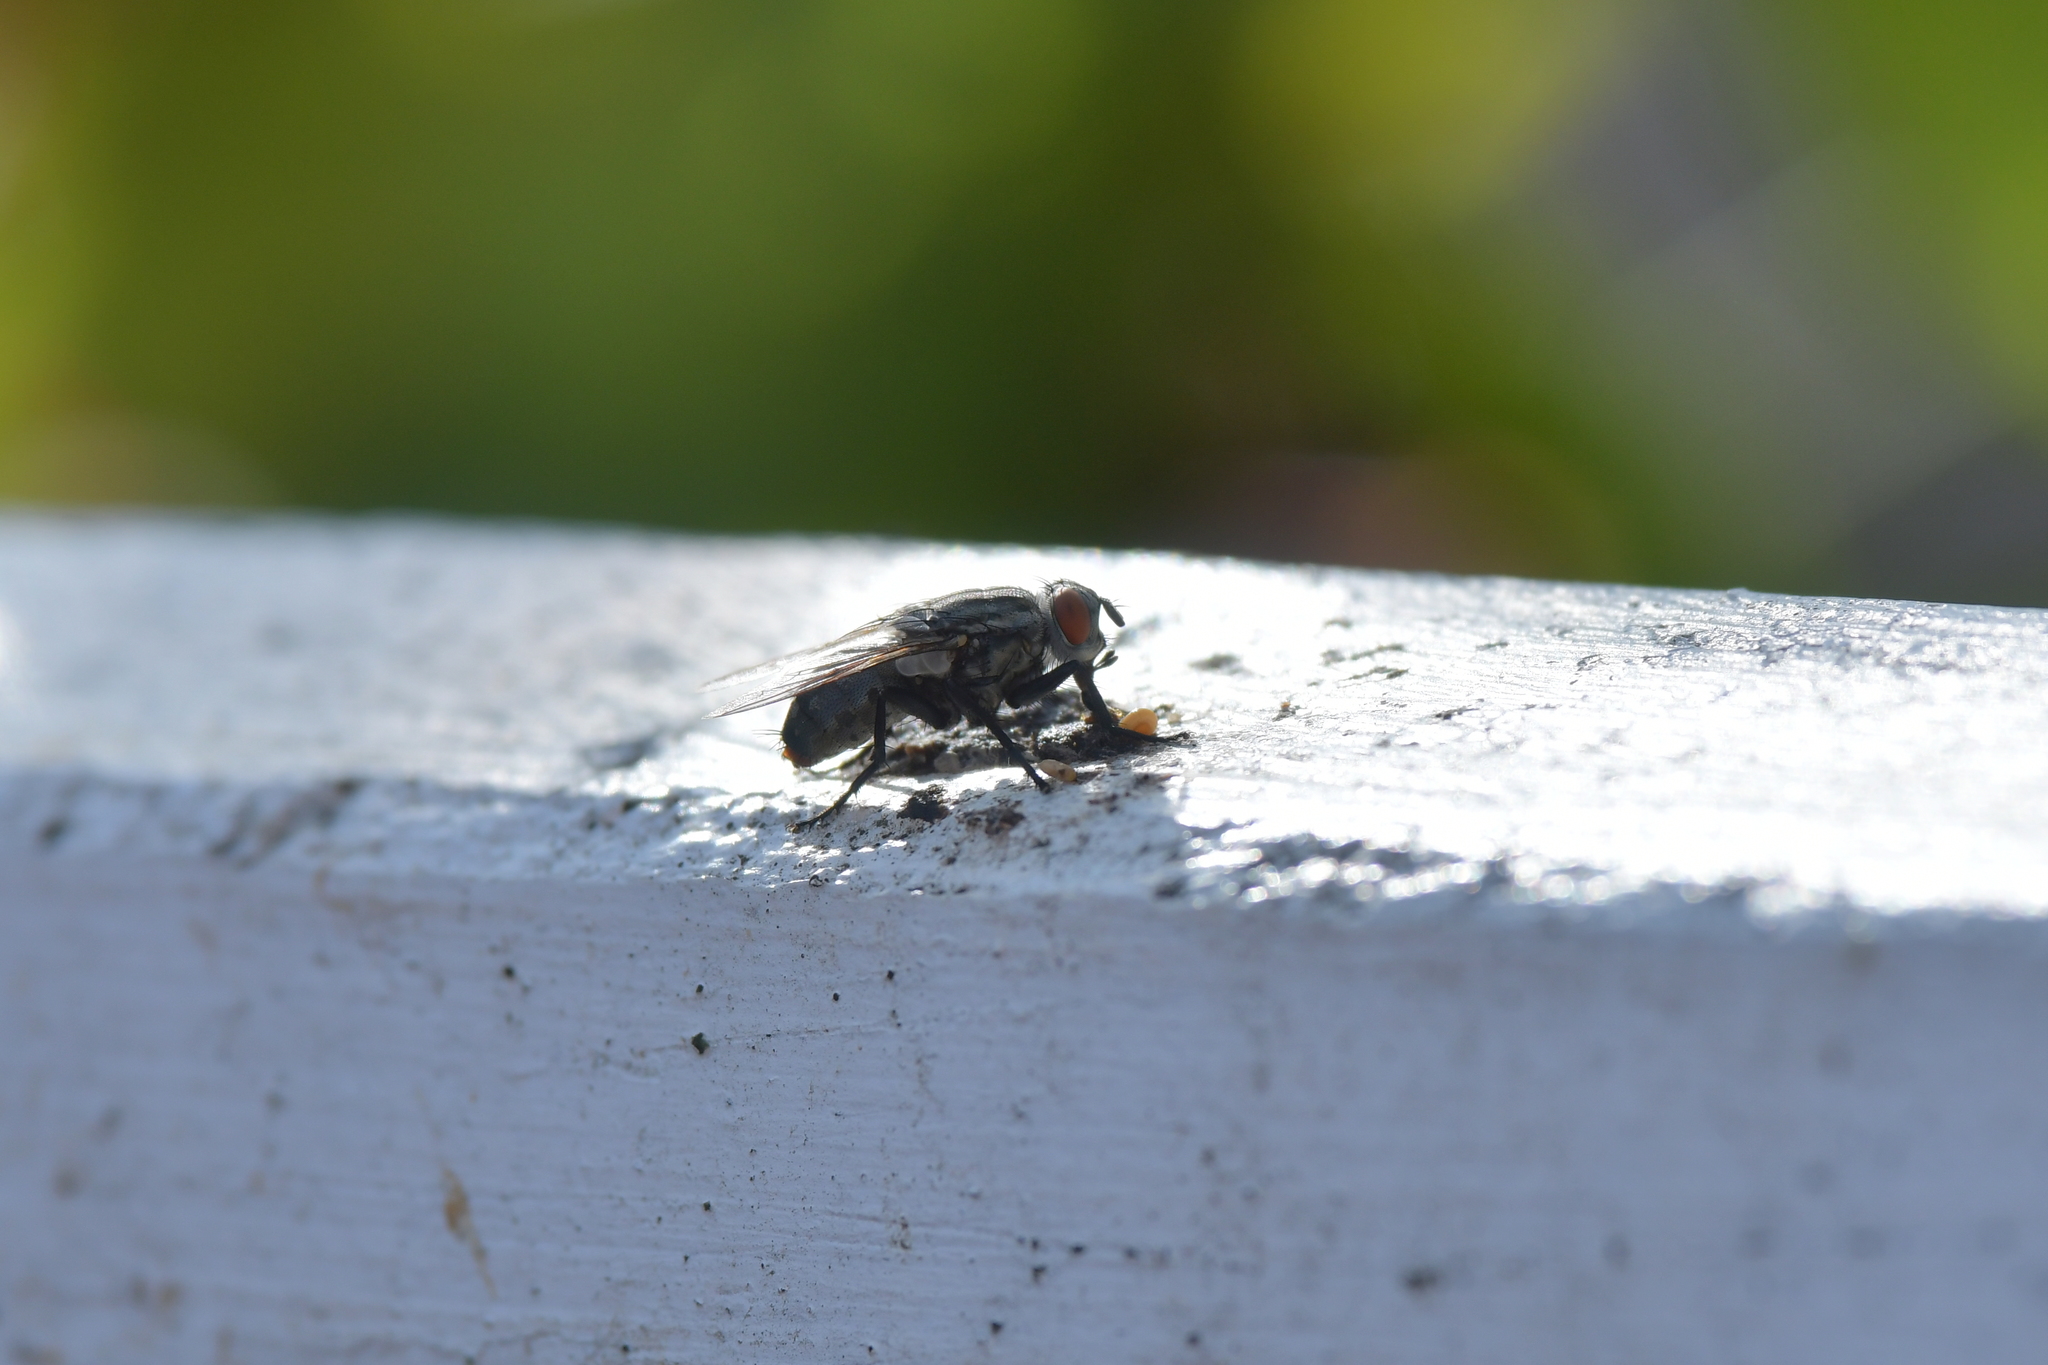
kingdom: Animalia
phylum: Arthropoda
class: Insecta
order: Diptera
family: Sarcophagidae
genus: Sarcophaga
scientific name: Sarcophaga crassipalpis
